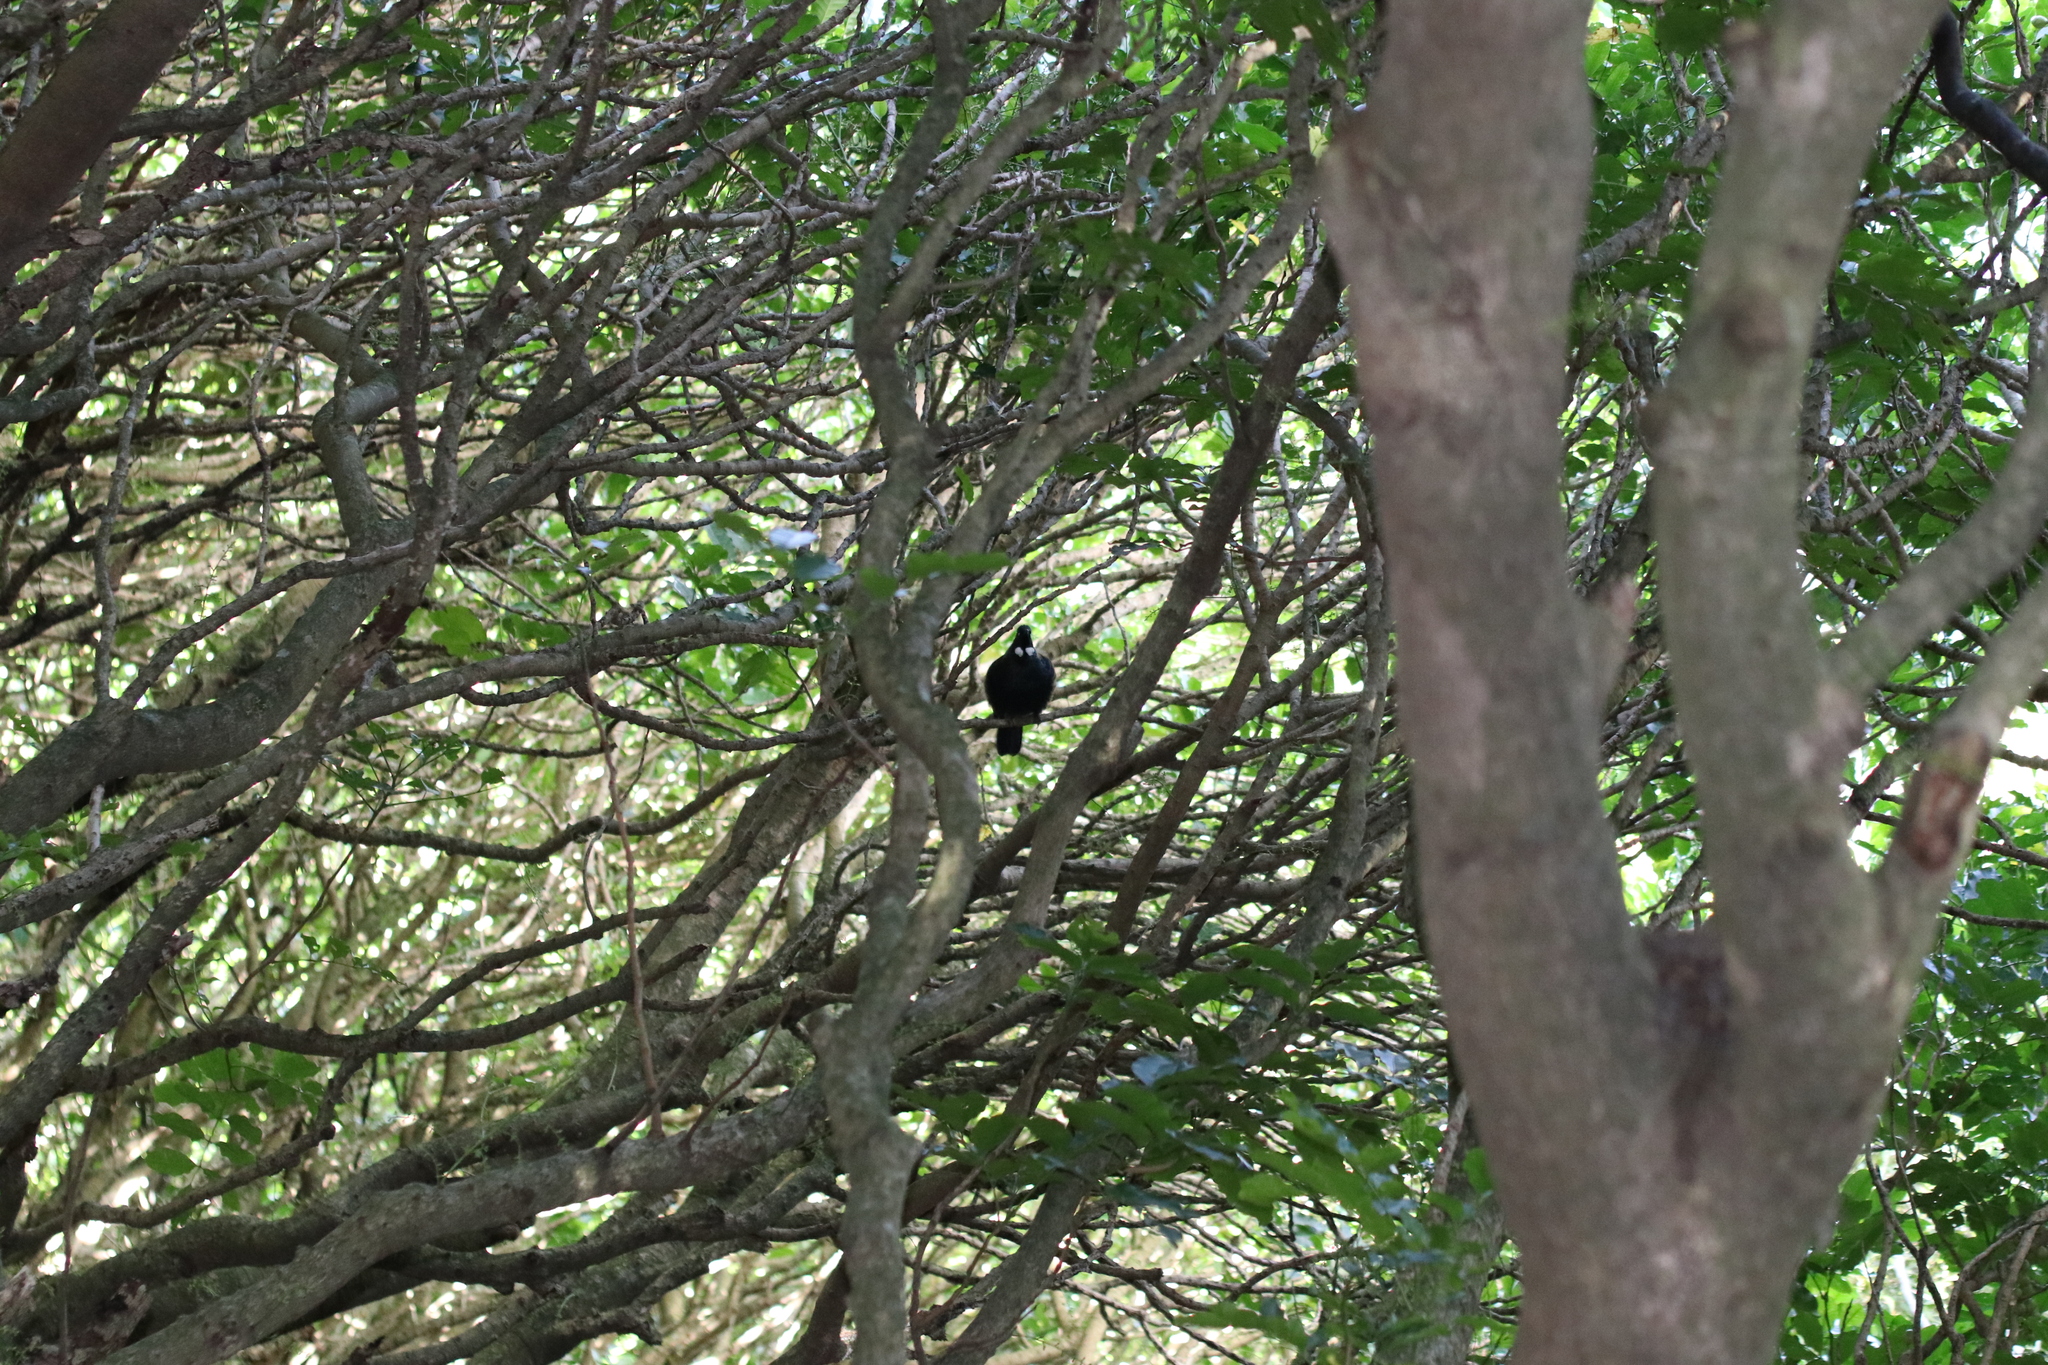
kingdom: Animalia
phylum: Chordata
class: Aves
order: Passeriformes
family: Meliphagidae
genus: Prosthemadera
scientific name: Prosthemadera novaeseelandiae
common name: Tui
